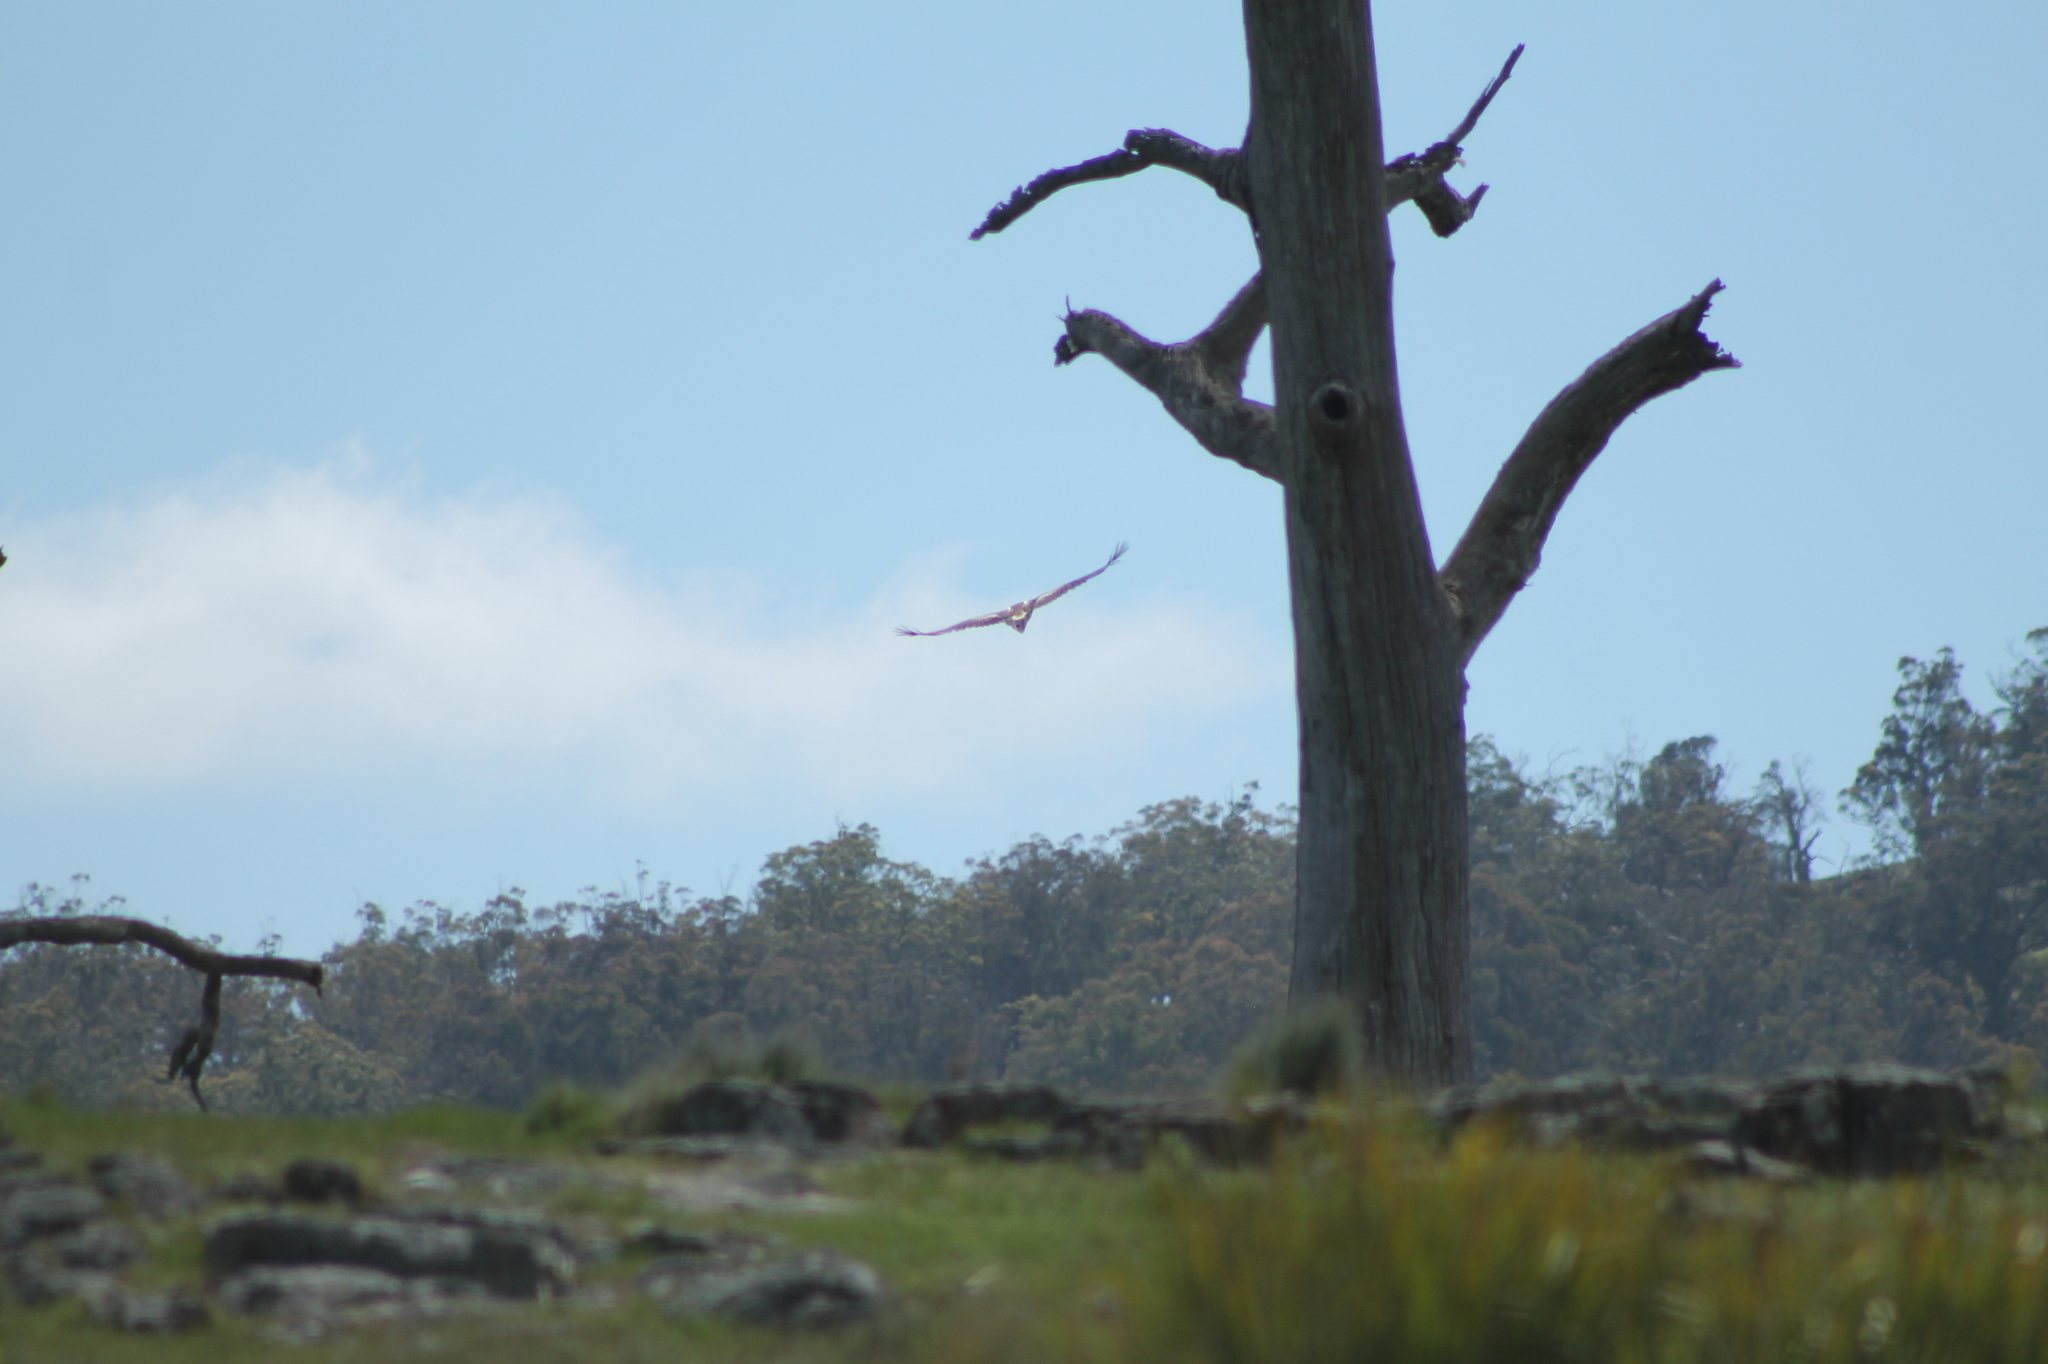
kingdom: Animalia
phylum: Chordata
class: Aves
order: Accipitriformes
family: Accipitridae
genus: Aquila
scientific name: Aquila audax
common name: Wedge-tailed eagle
